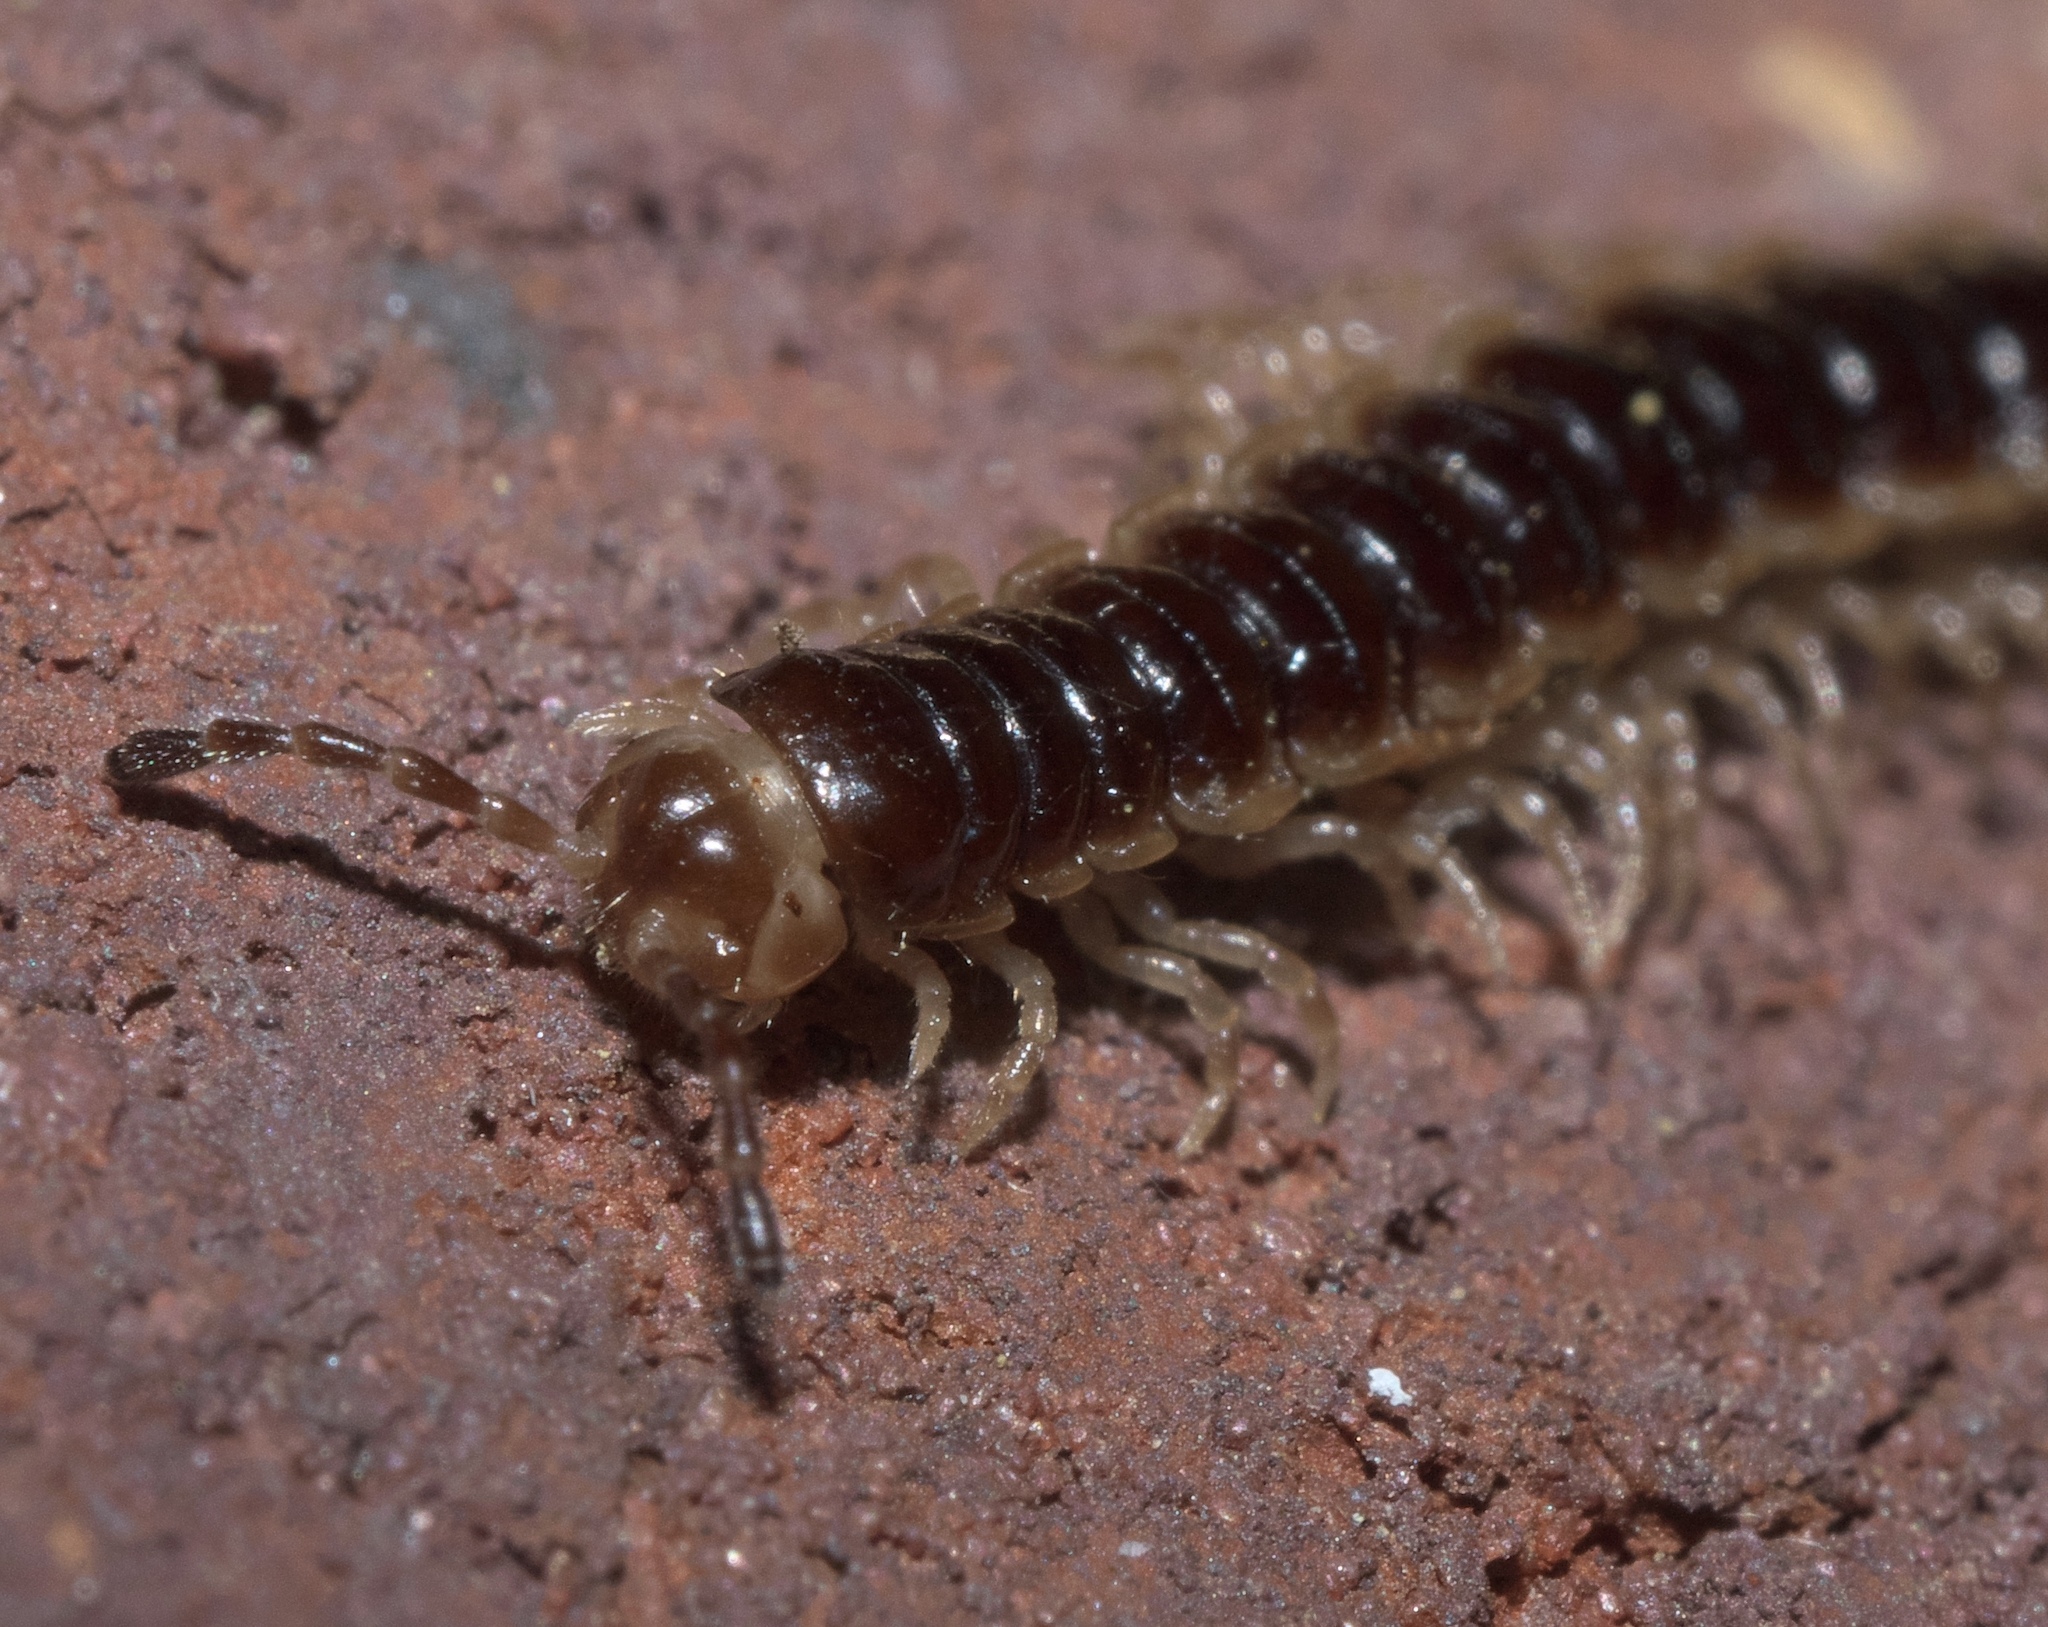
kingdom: Animalia
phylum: Arthropoda
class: Diplopoda
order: Polydesmida
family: Paradoxosomatidae
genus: Oxidus
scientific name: Oxidus gracilis
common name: Greenhouse millipede
